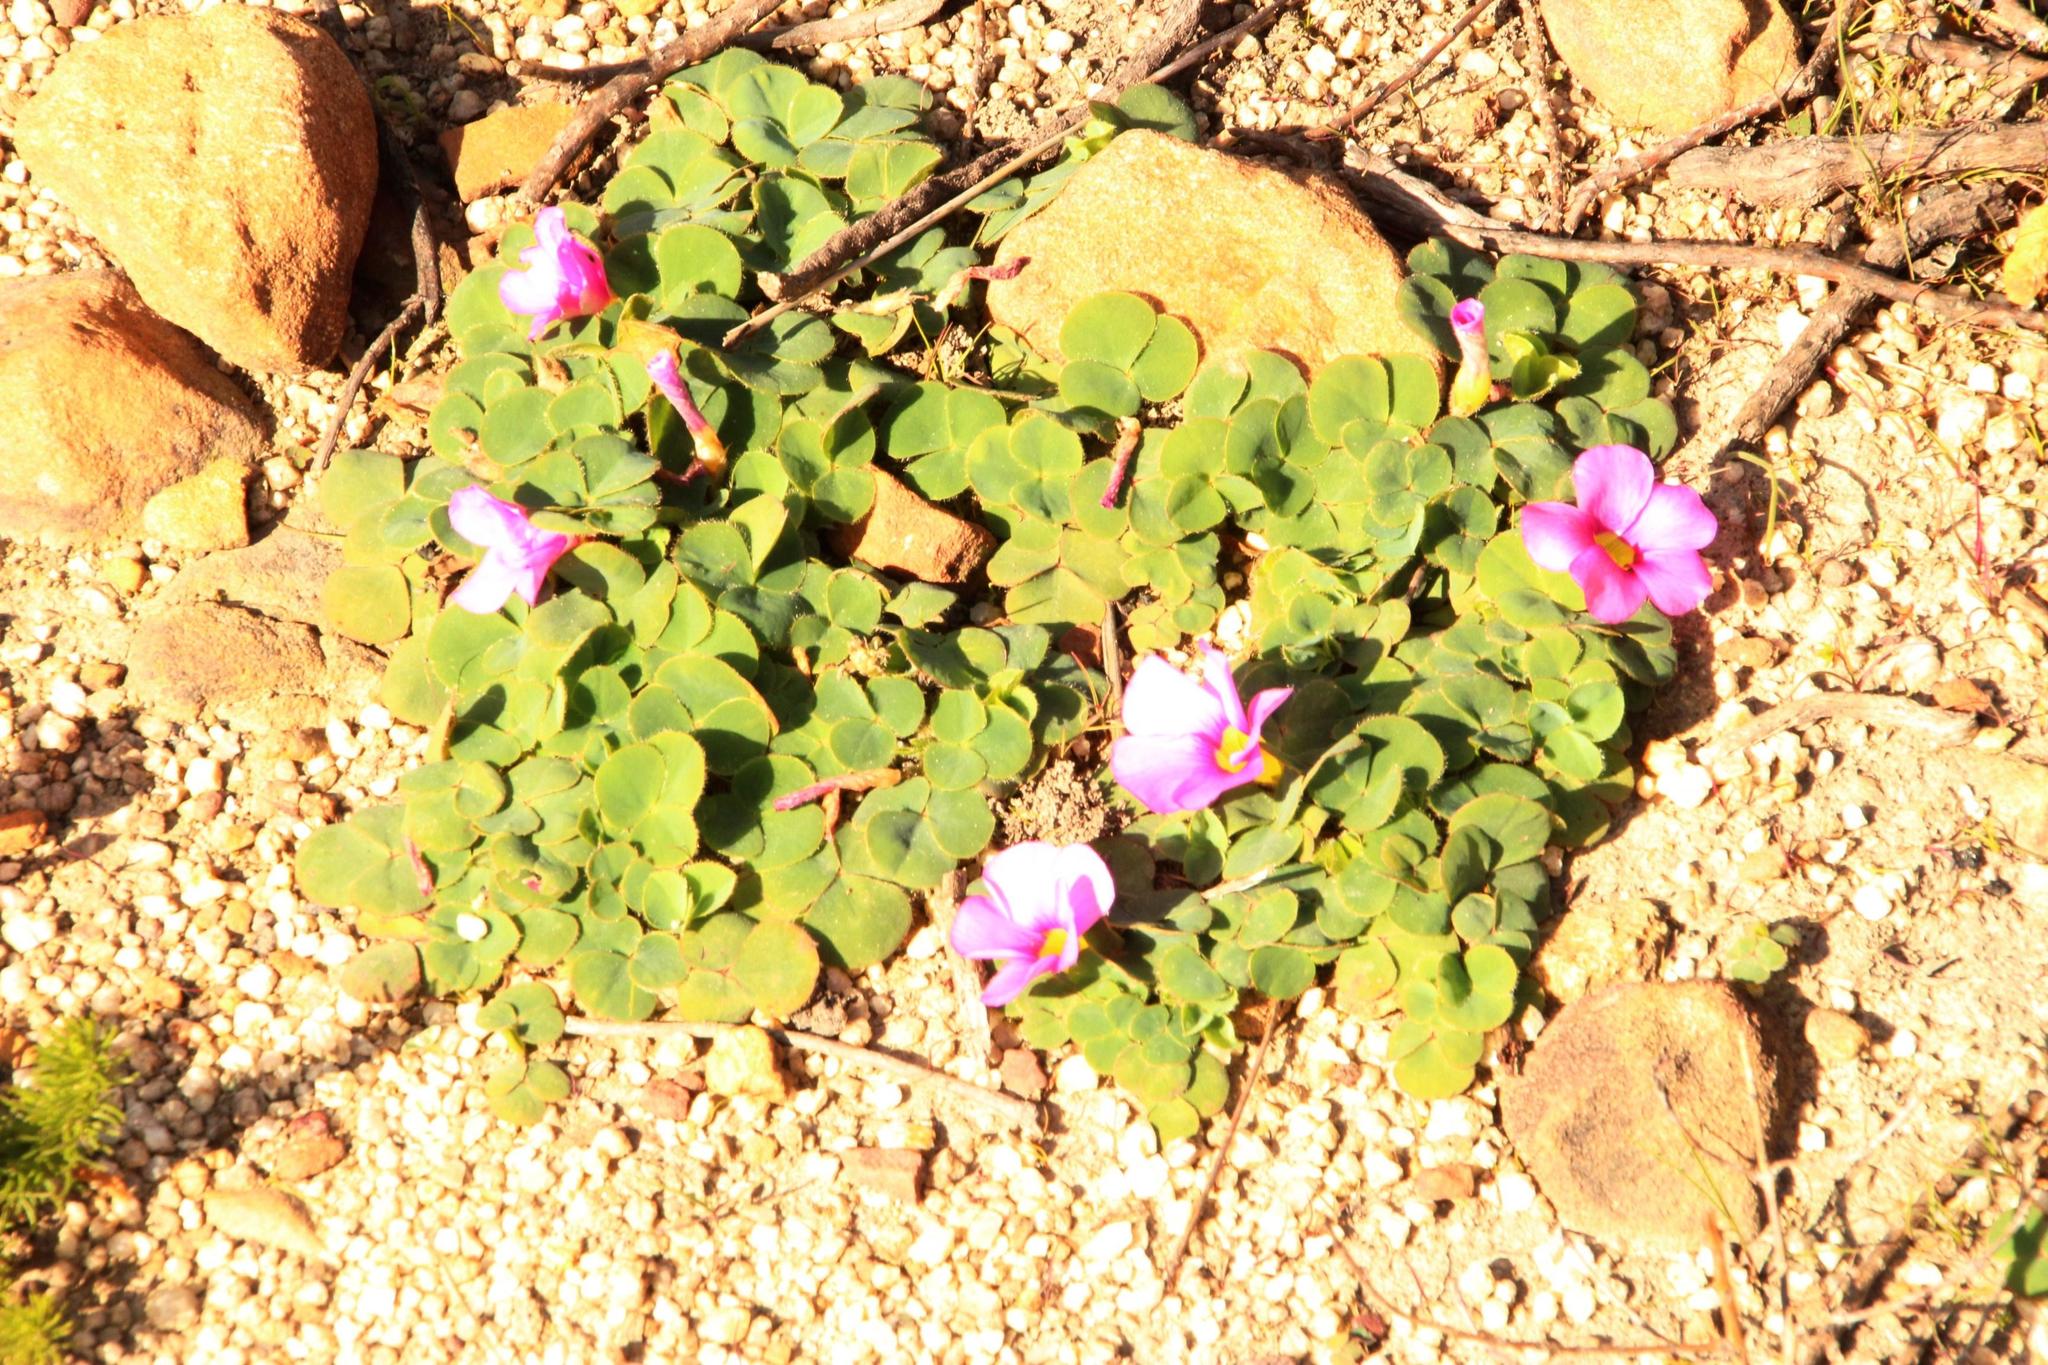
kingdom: Plantae
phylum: Tracheophyta
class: Magnoliopsida
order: Oxalidales
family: Oxalidaceae
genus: Oxalis
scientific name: Oxalis purpurea
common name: Purple woodsorrel
